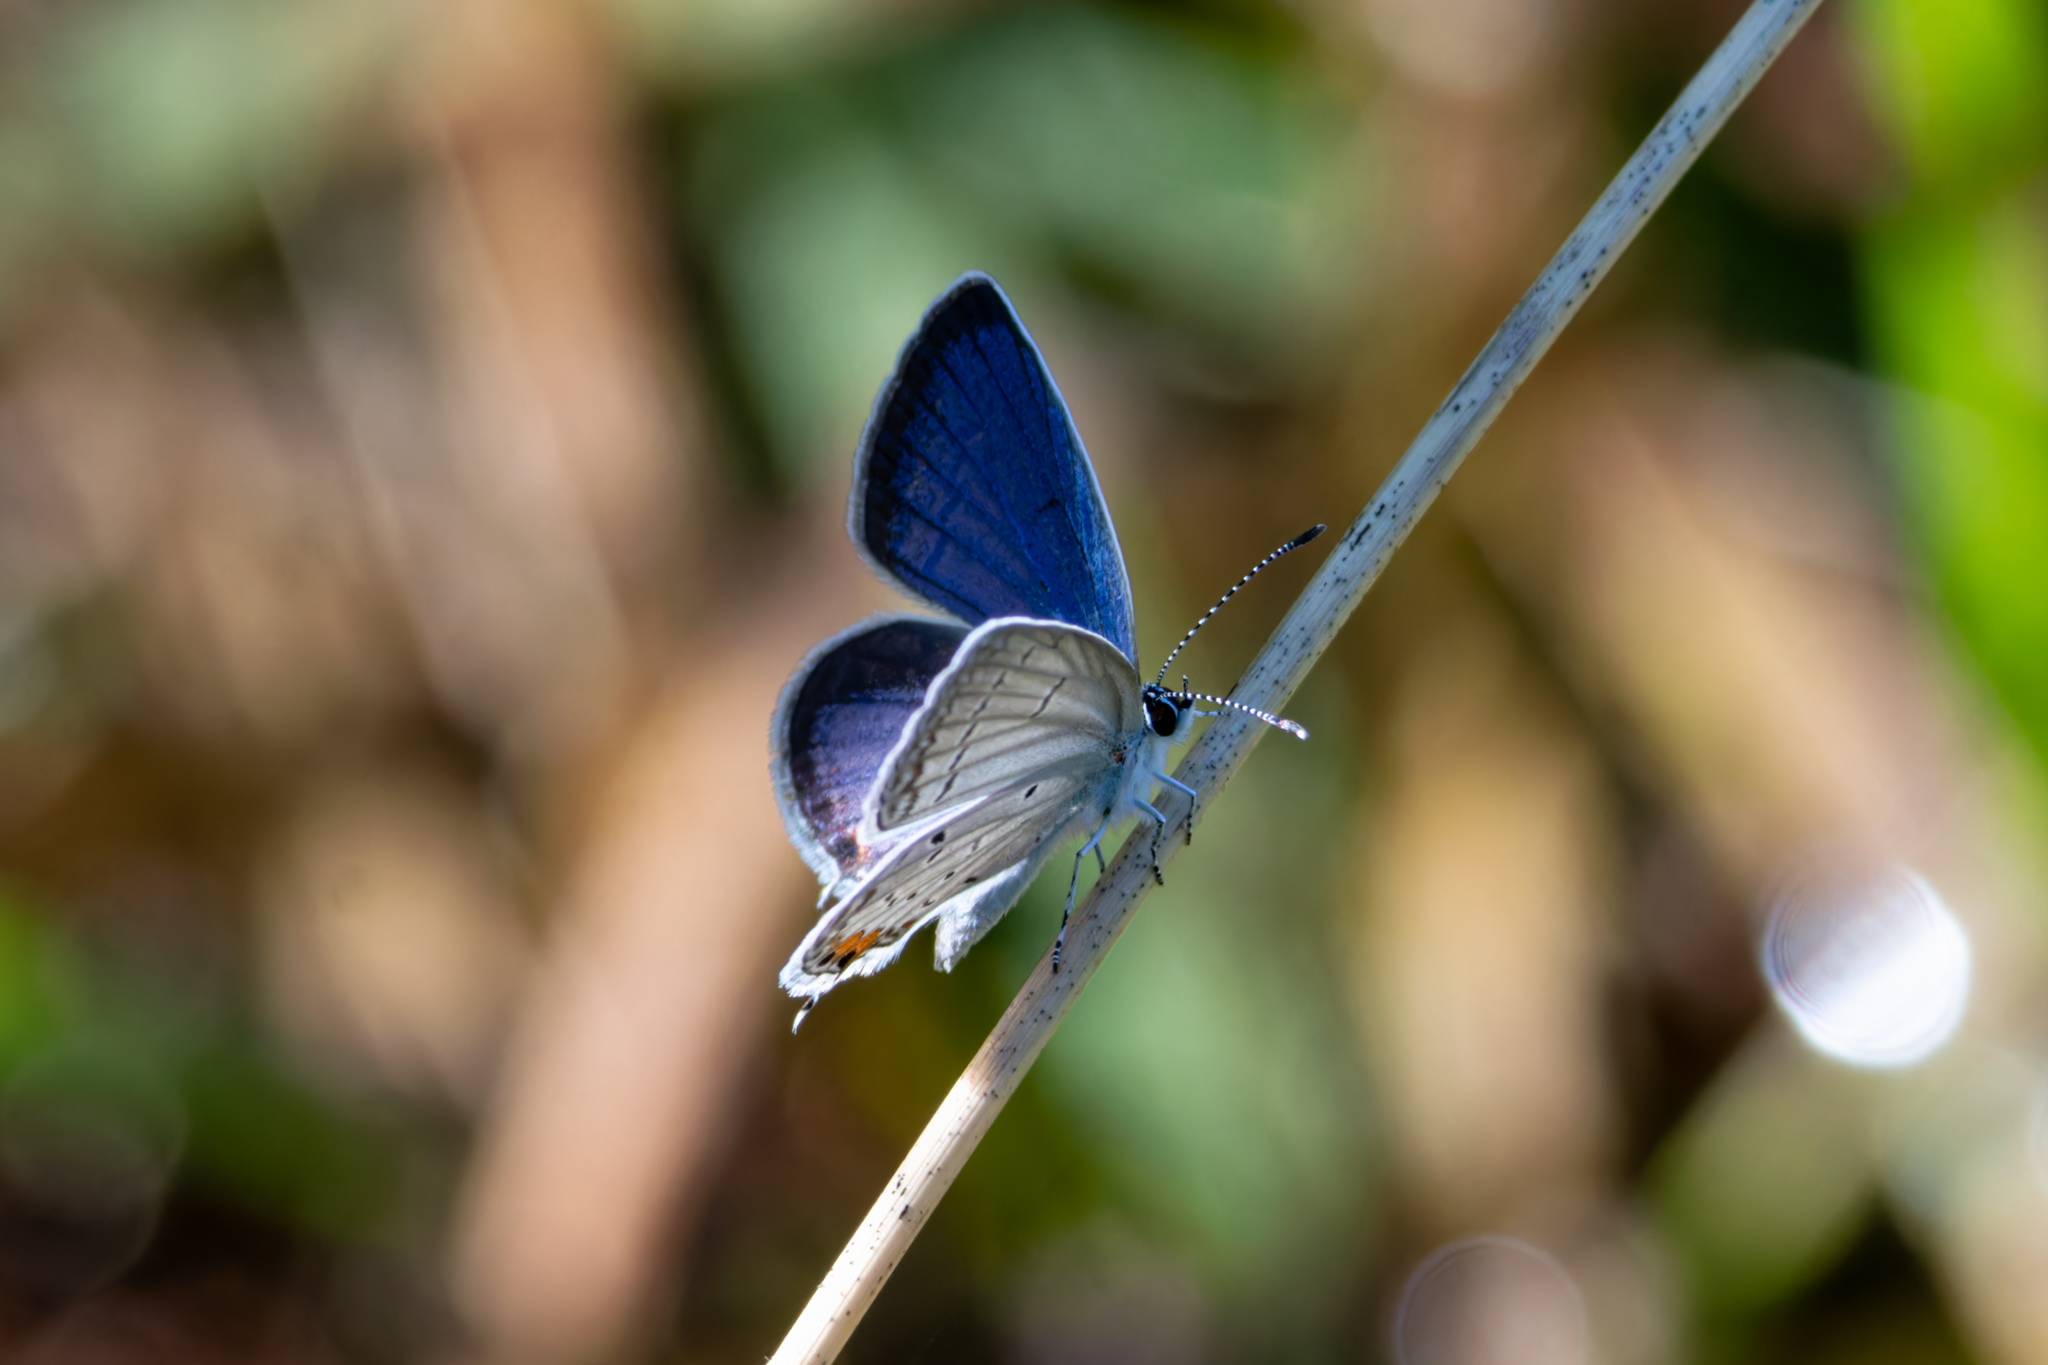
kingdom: Animalia
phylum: Arthropoda
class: Insecta
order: Lepidoptera
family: Lycaenidae
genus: Elkalyce
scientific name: Elkalyce comyntas
